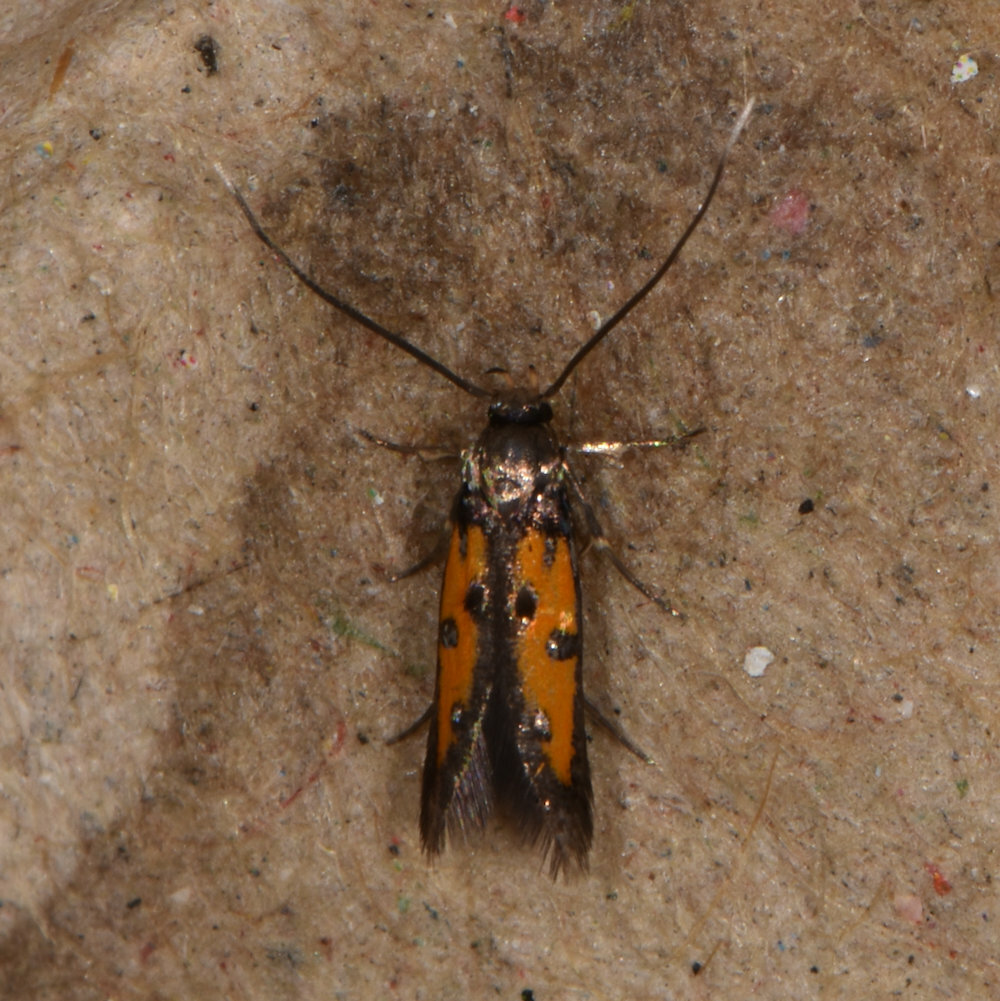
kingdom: Animalia
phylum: Arthropoda
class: Insecta
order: Lepidoptera
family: Elachistidae
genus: Chrysoclista
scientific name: Chrysoclista linneela
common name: Lime cosmet
